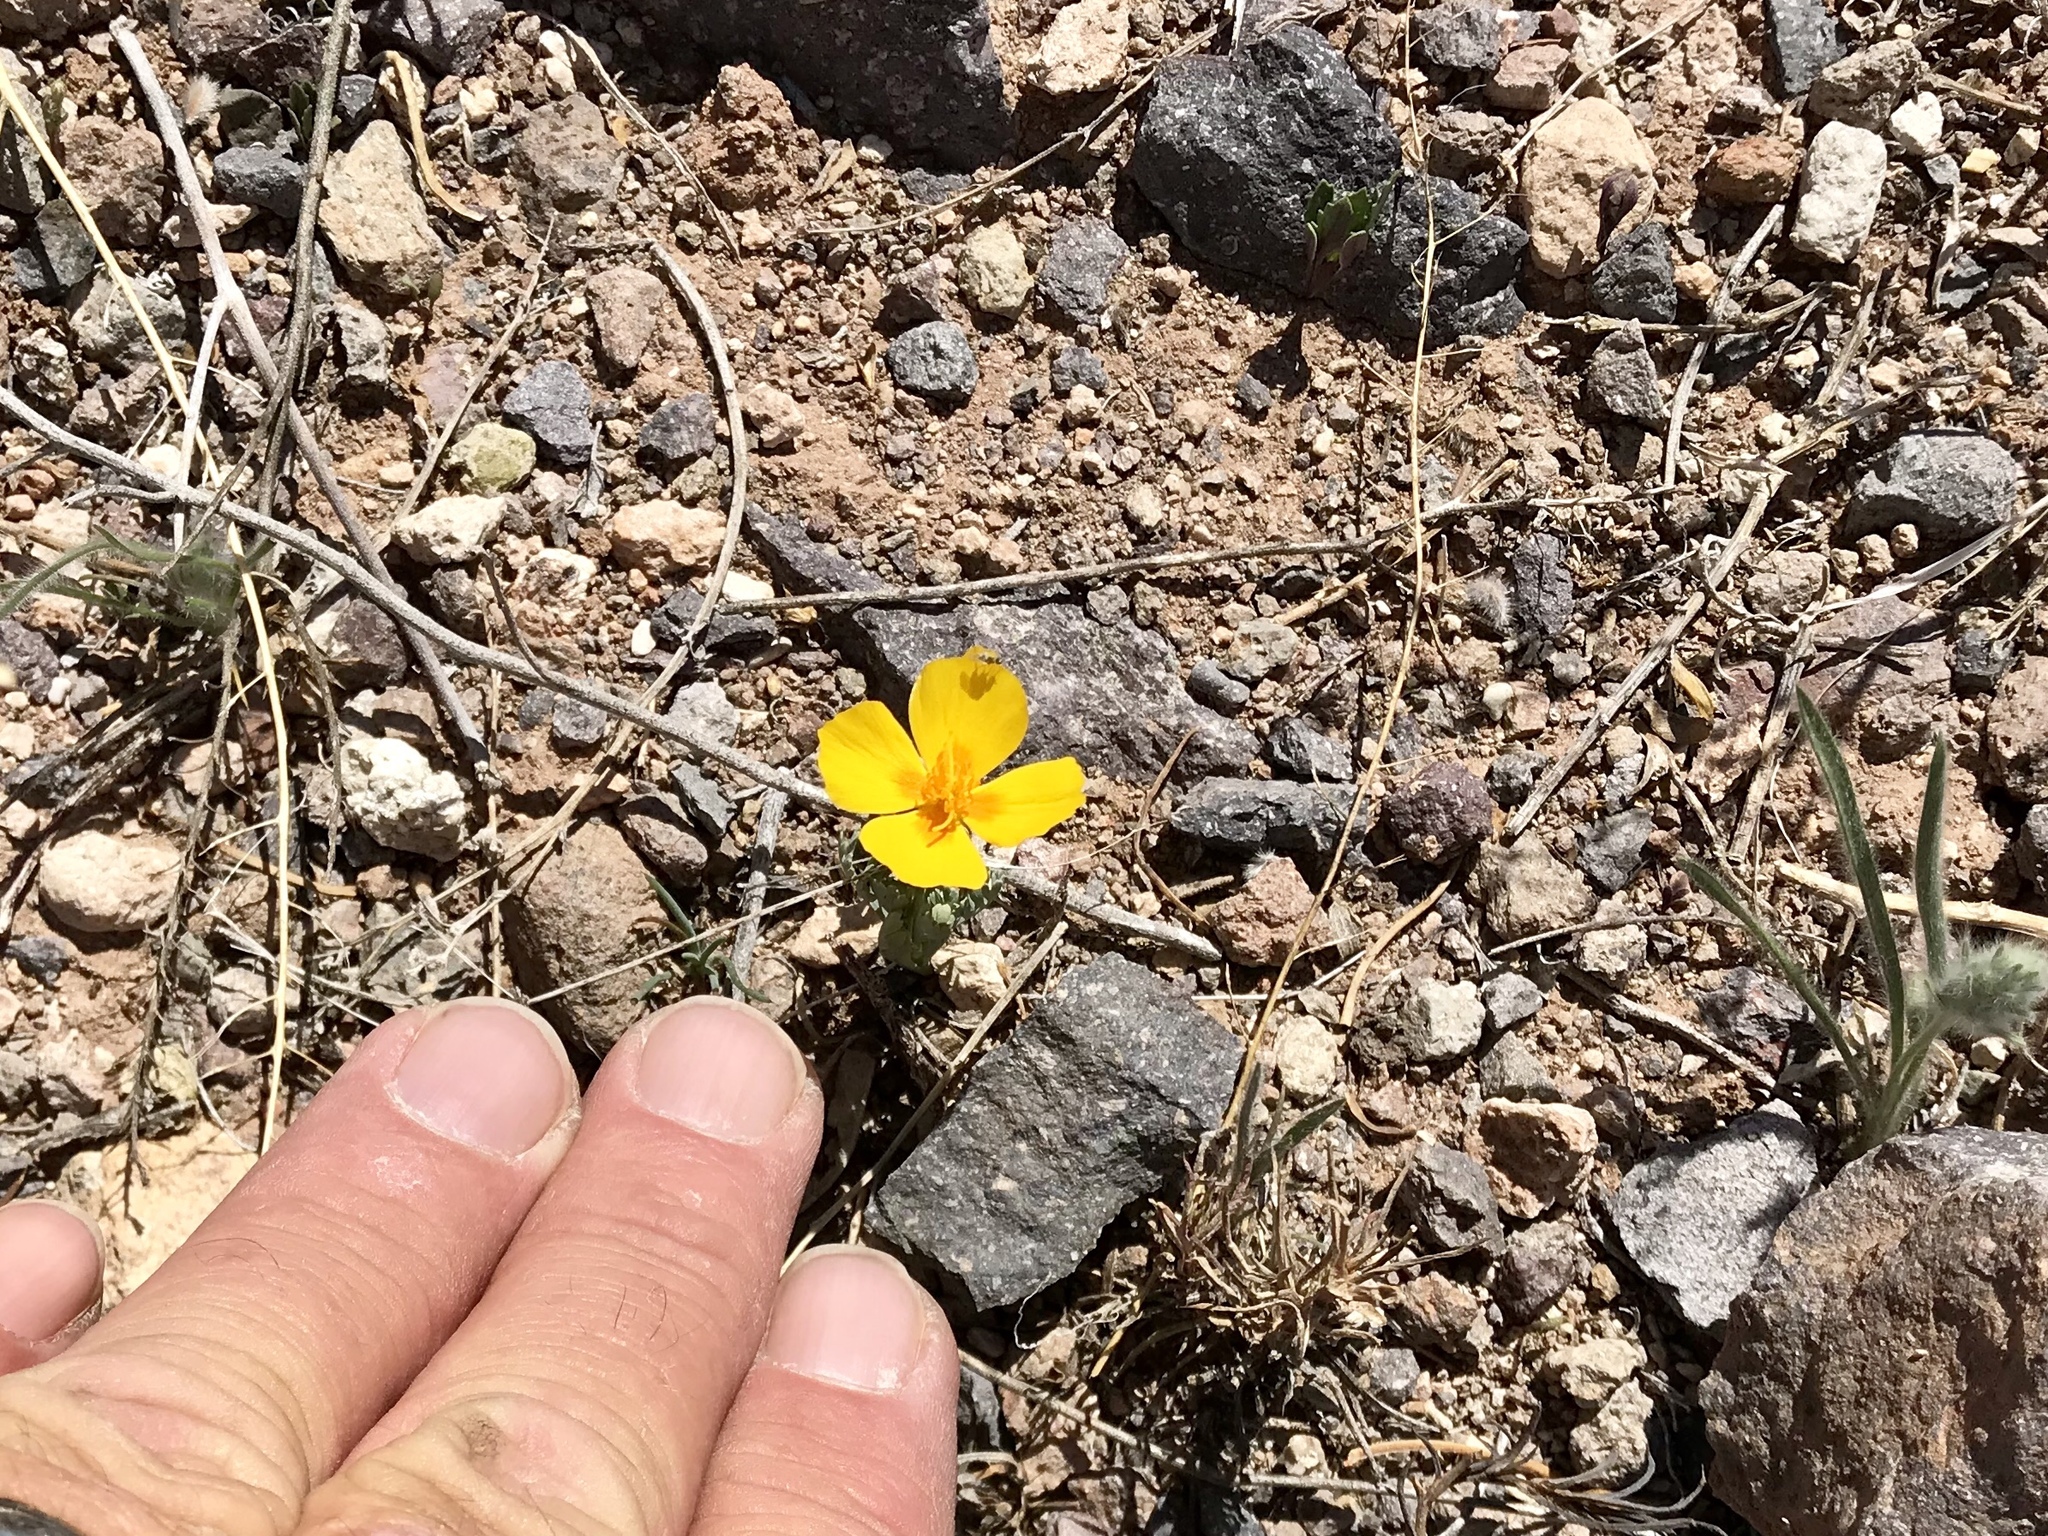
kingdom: Plantae
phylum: Tracheophyta
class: Magnoliopsida
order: Ranunculales
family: Papaveraceae
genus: Eschscholzia
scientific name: Eschscholzia californica
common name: California poppy
